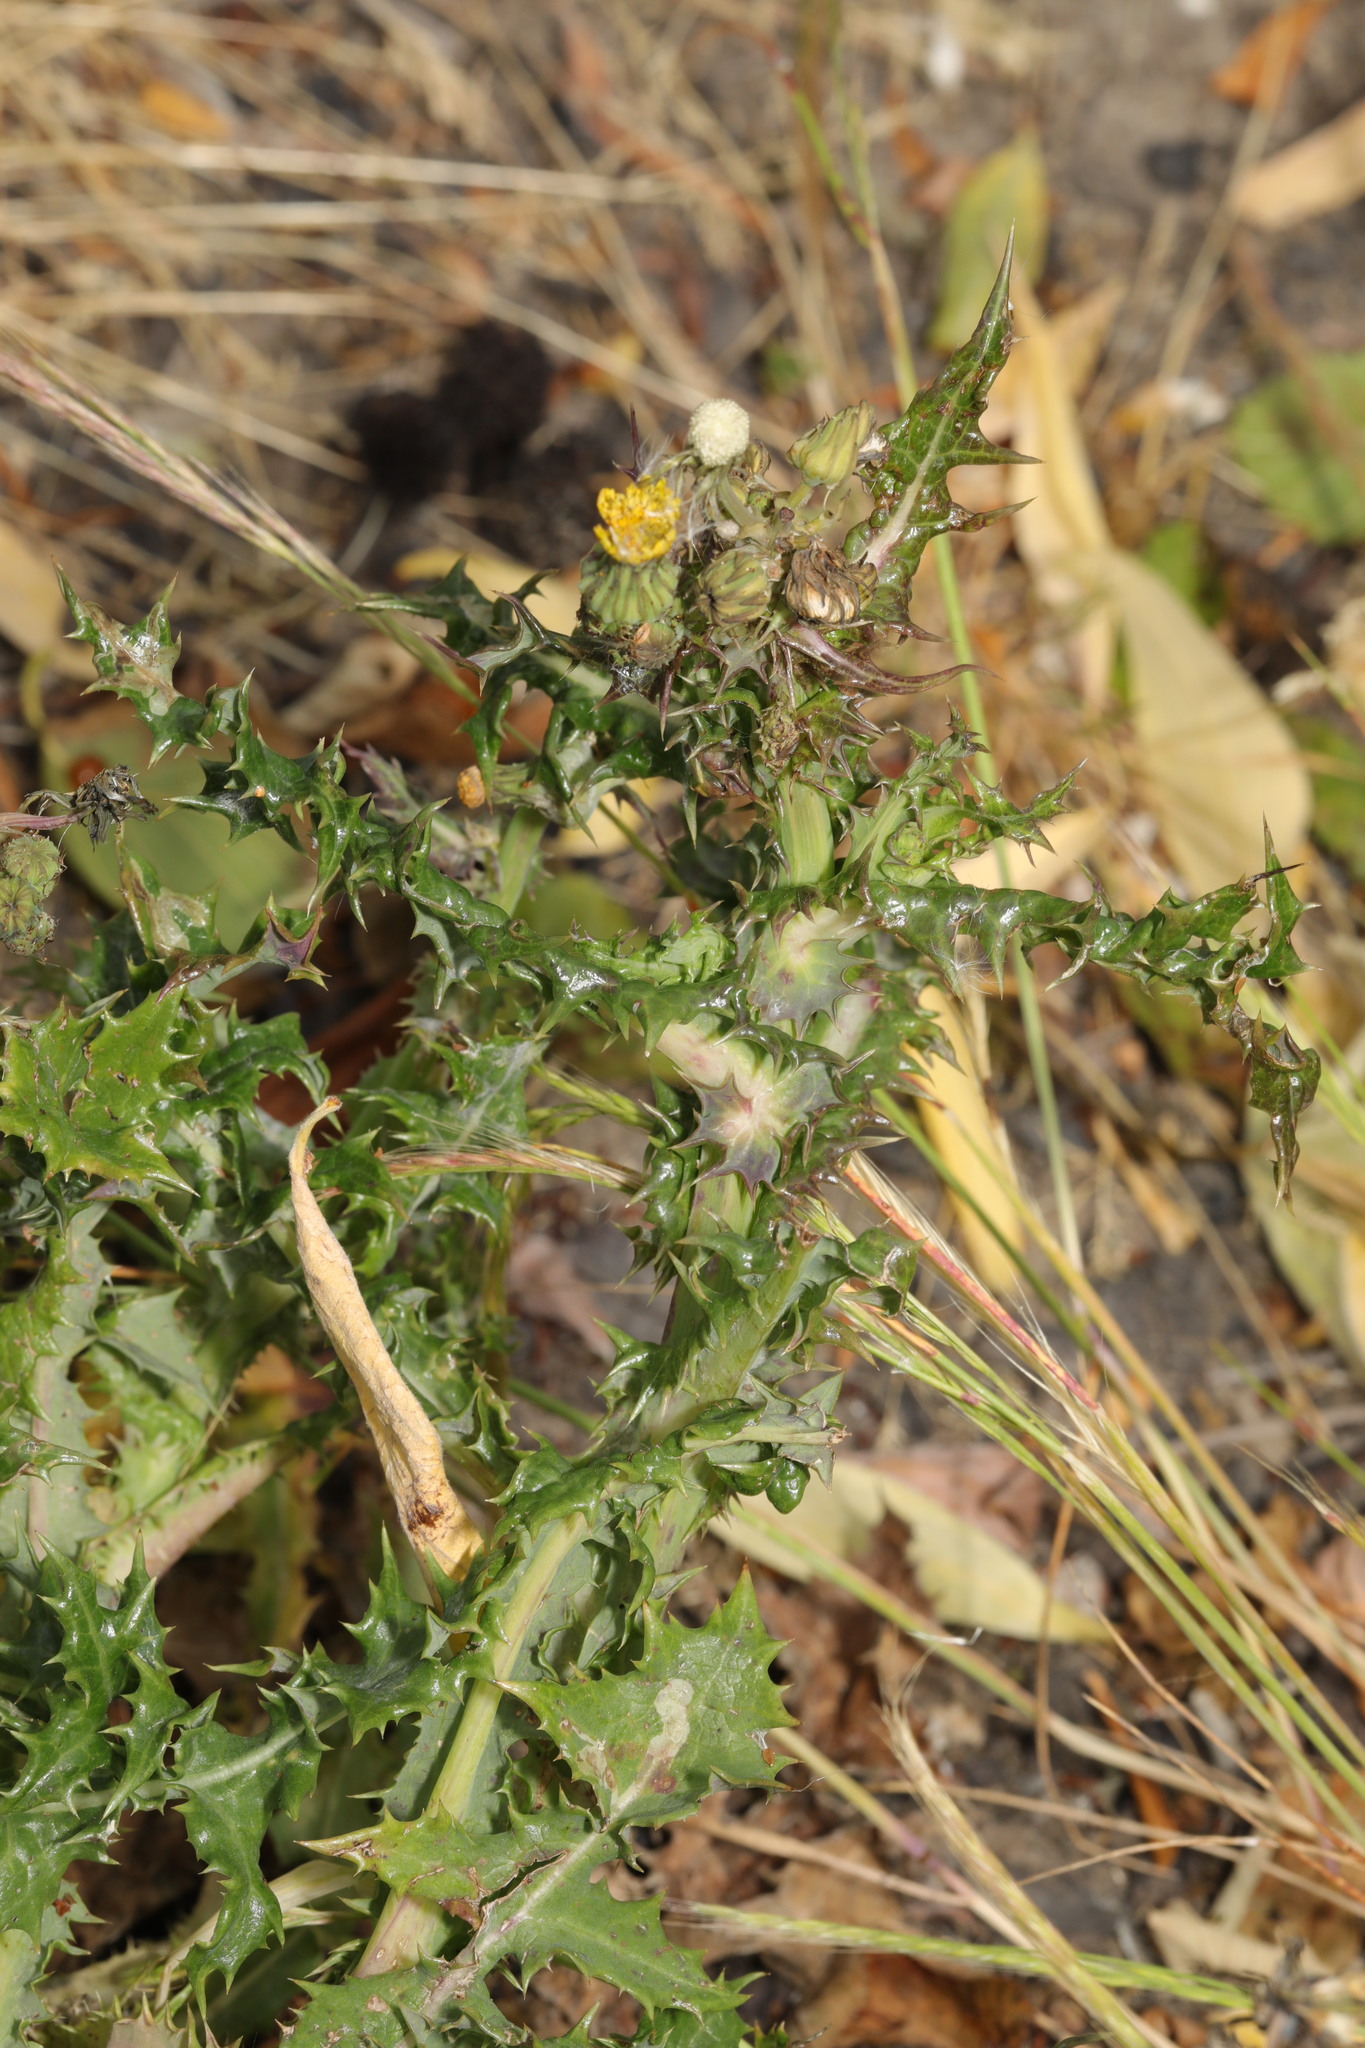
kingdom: Plantae
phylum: Tracheophyta
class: Magnoliopsida
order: Asterales
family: Asteraceae
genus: Sonchus
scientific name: Sonchus asper
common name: Prickly sow-thistle
